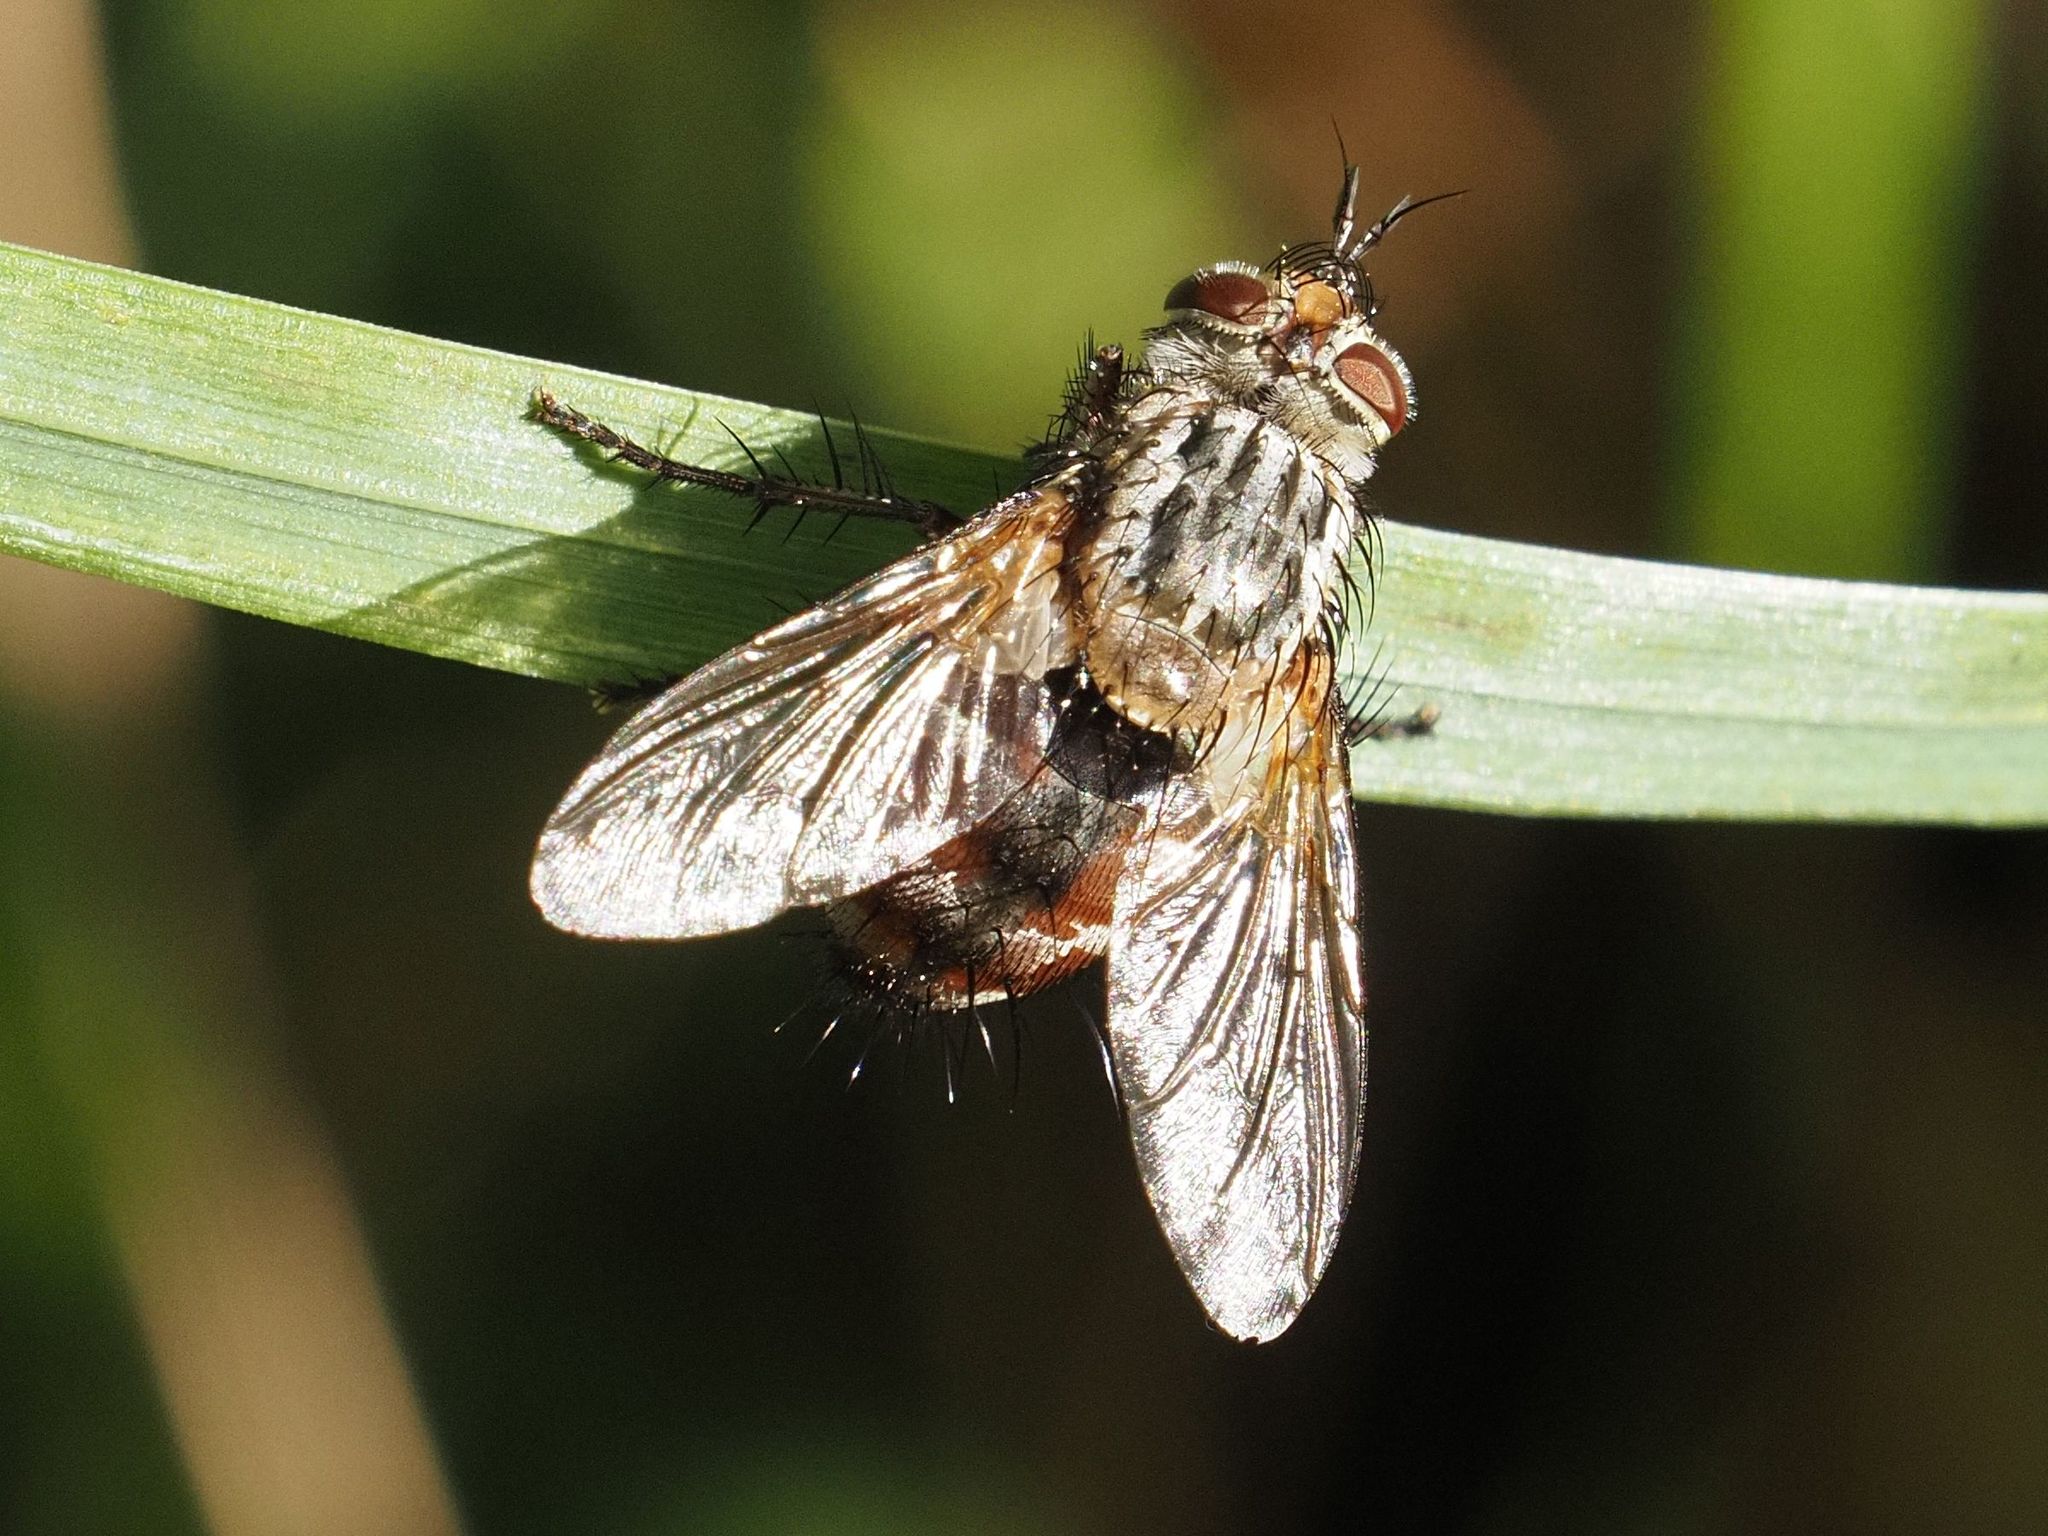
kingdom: Animalia
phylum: Arthropoda
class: Insecta
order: Diptera
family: Tachinidae
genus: Linnaemya
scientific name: Linnaemya vulpina
